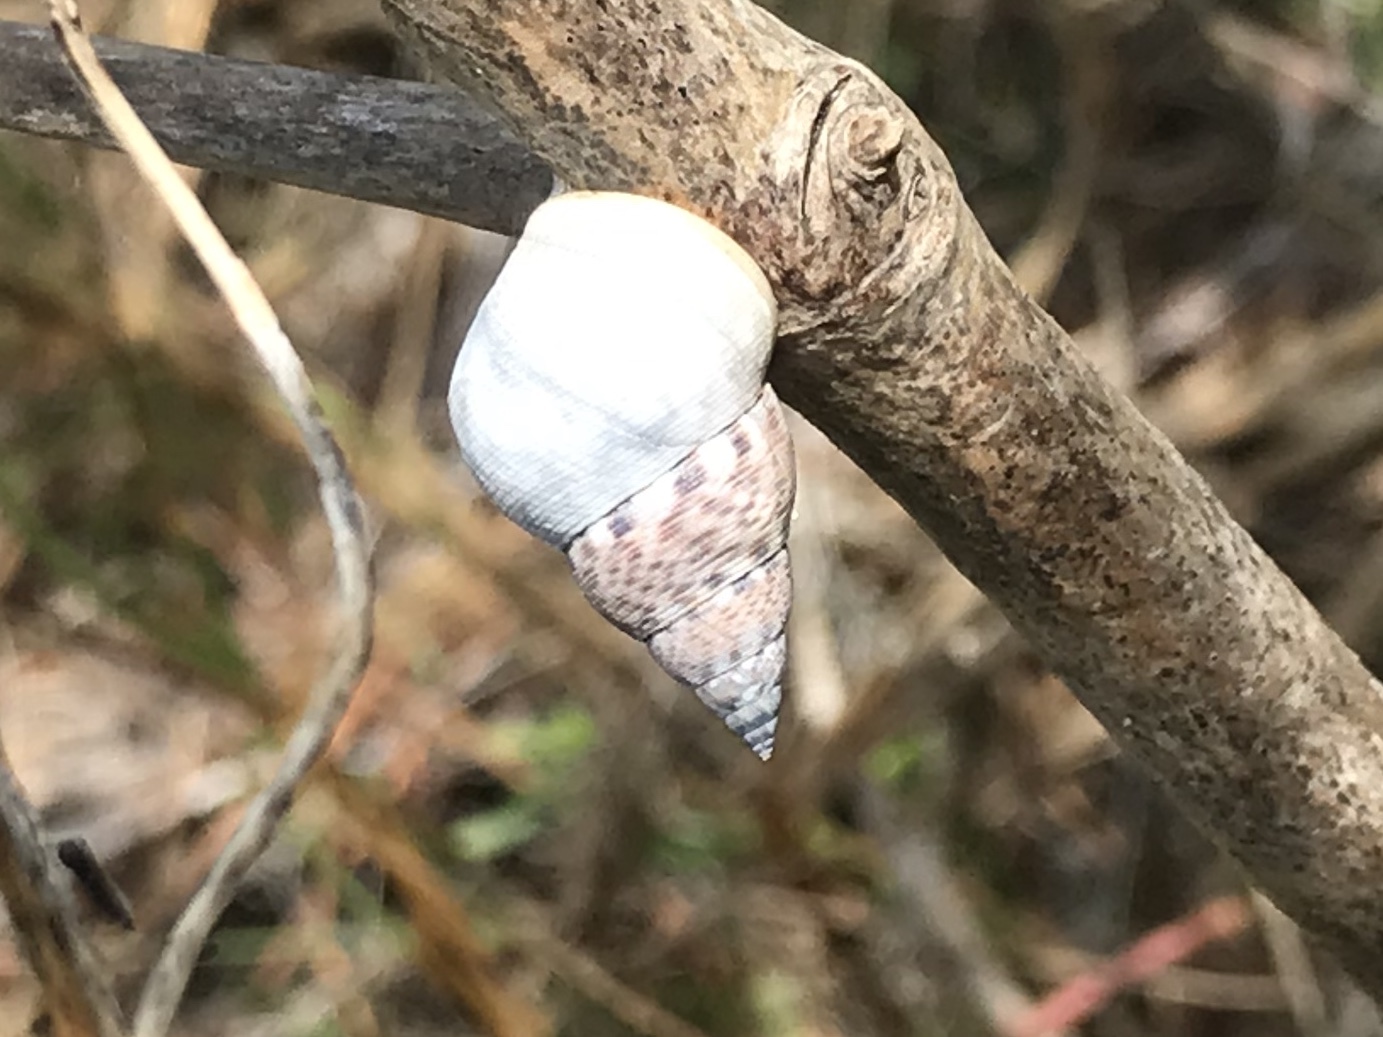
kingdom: Animalia
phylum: Mollusca
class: Gastropoda
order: Littorinimorpha
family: Littorinidae
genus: Littoraria
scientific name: Littoraria angulifera
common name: Mangrove periwinkle
